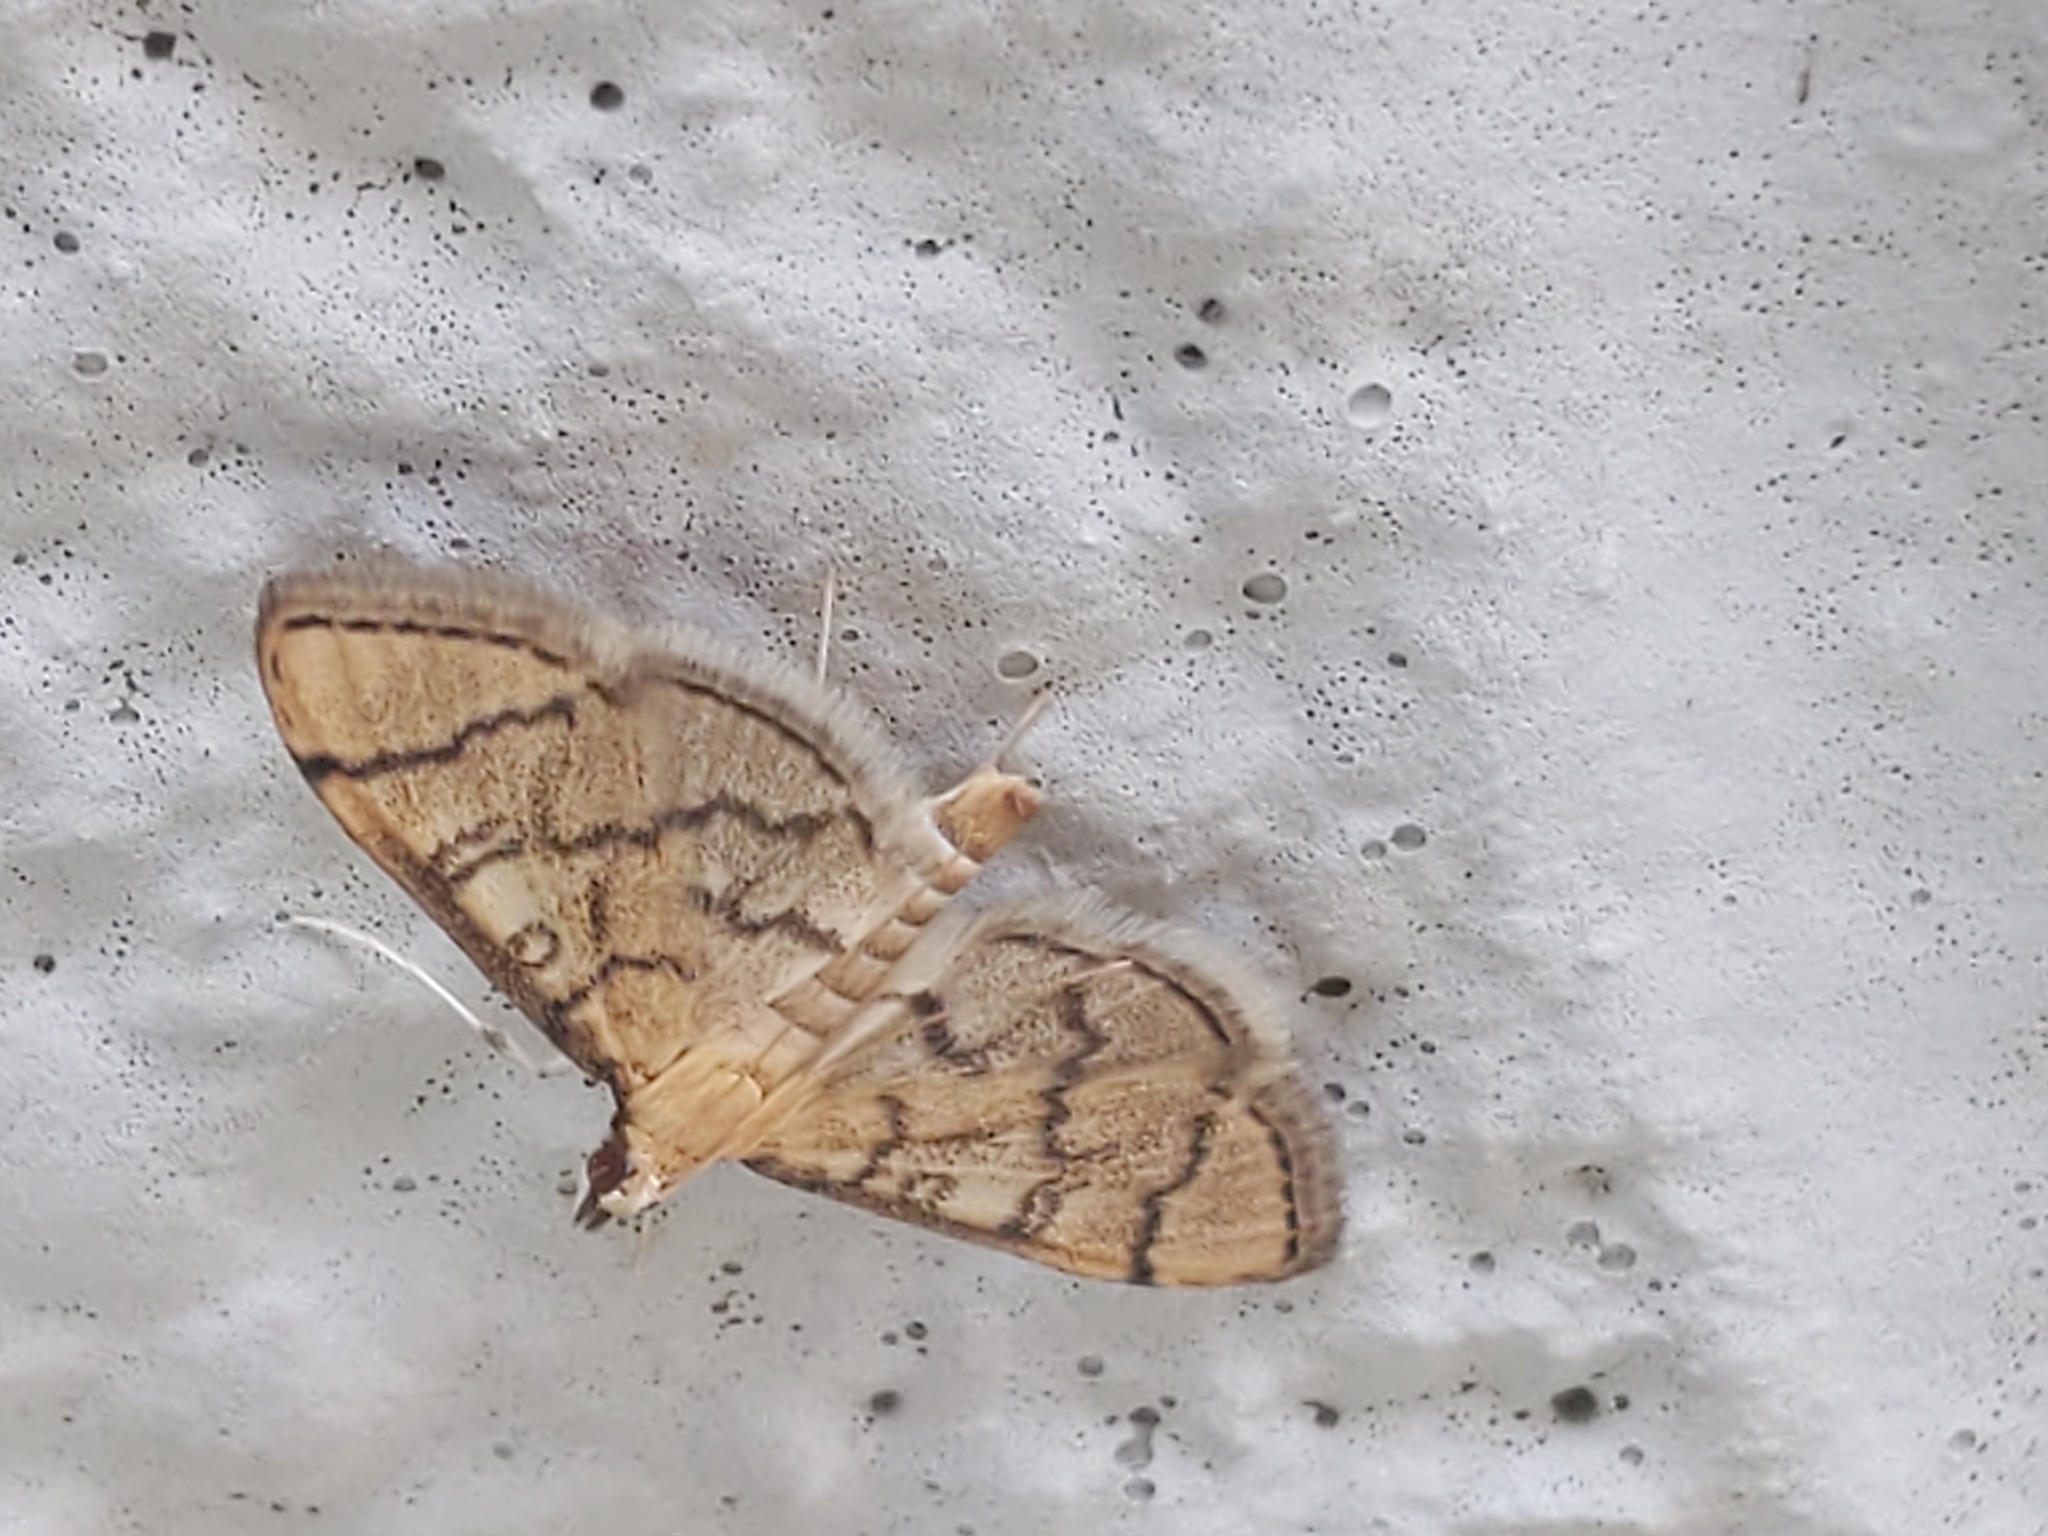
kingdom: Animalia
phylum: Arthropoda
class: Insecta
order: Lepidoptera
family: Crambidae
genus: Lamprosema
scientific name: Lamprosema Blepharomastix ranalis
